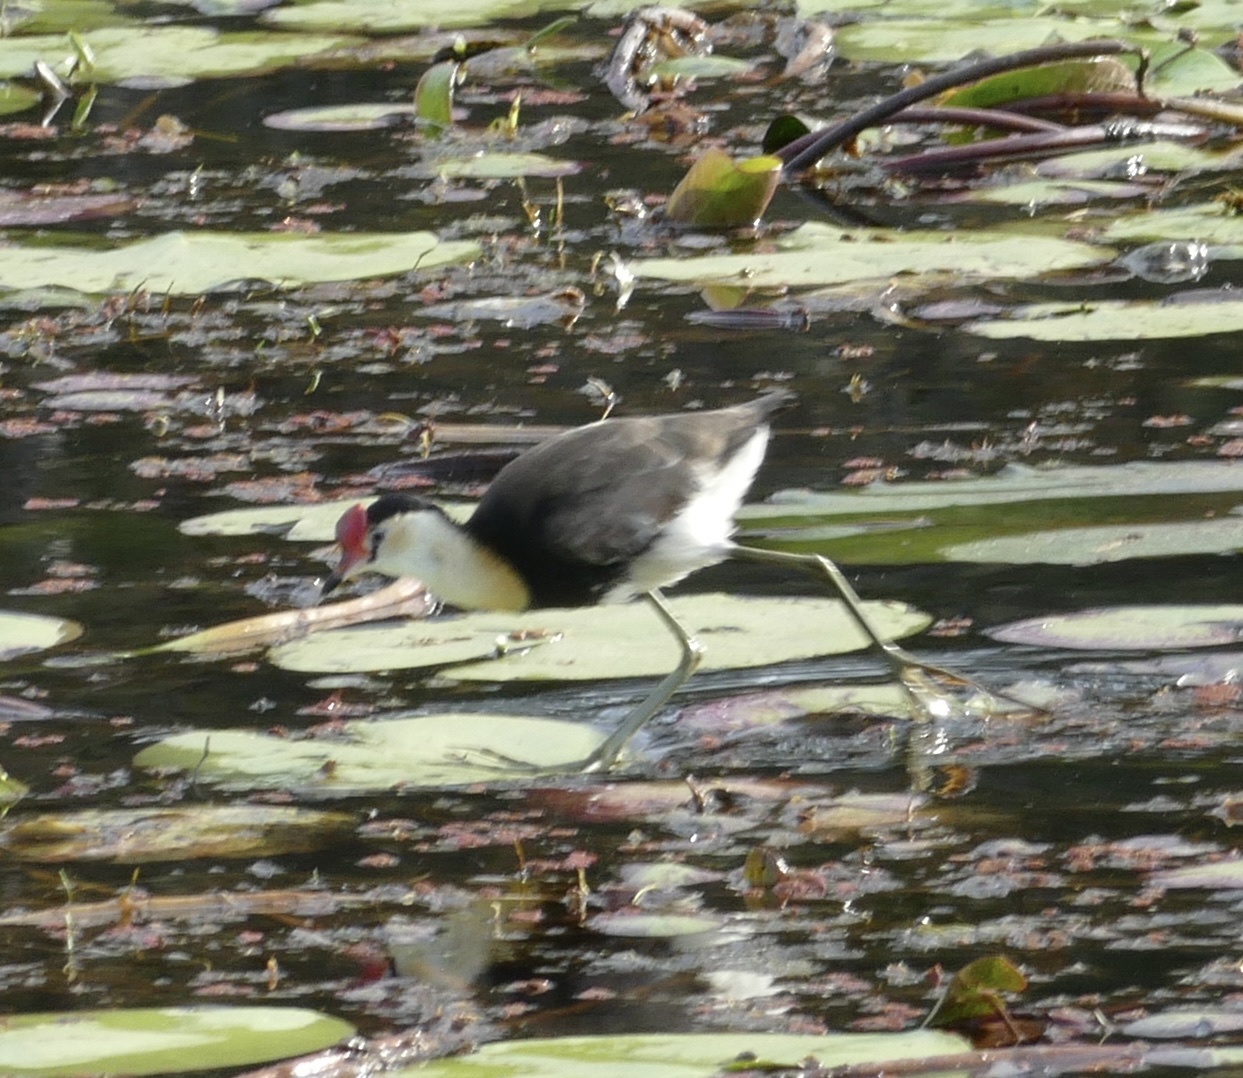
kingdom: Animalia
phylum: Chordata
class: Aves
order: Charadriiformes
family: Jacanidae
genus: Irediparra
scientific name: Irediparra gallinacea
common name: Comb-crested jacana
